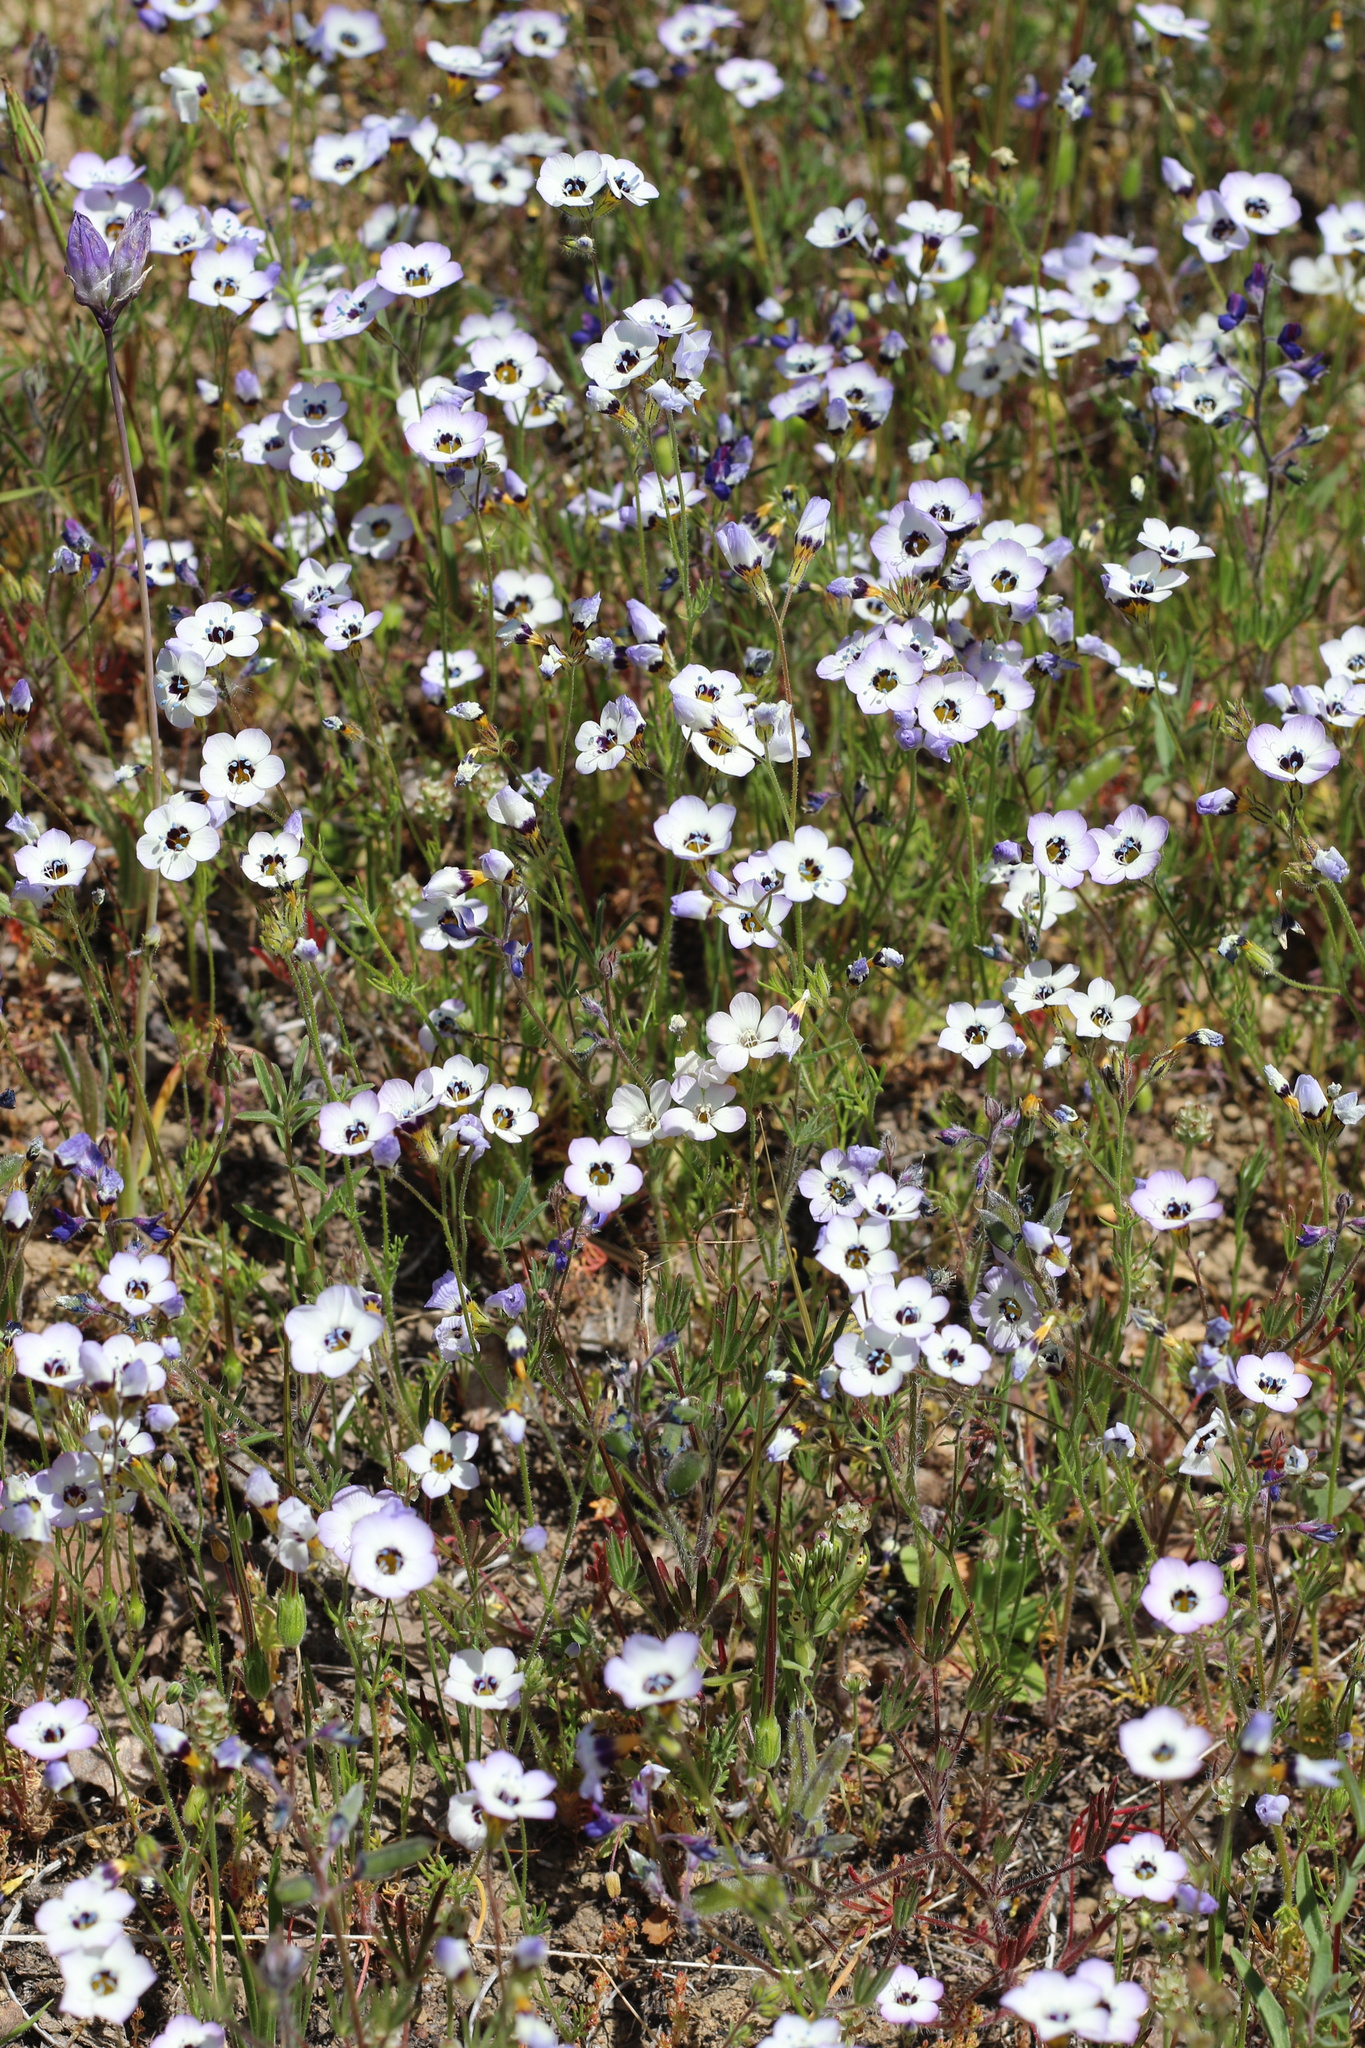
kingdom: Plantae
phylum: Tracheophyta
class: Magnoliopsida
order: Ericales
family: Polemoniaceae
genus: Gilia
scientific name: Gilia tricolor
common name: Bird's-eyes
